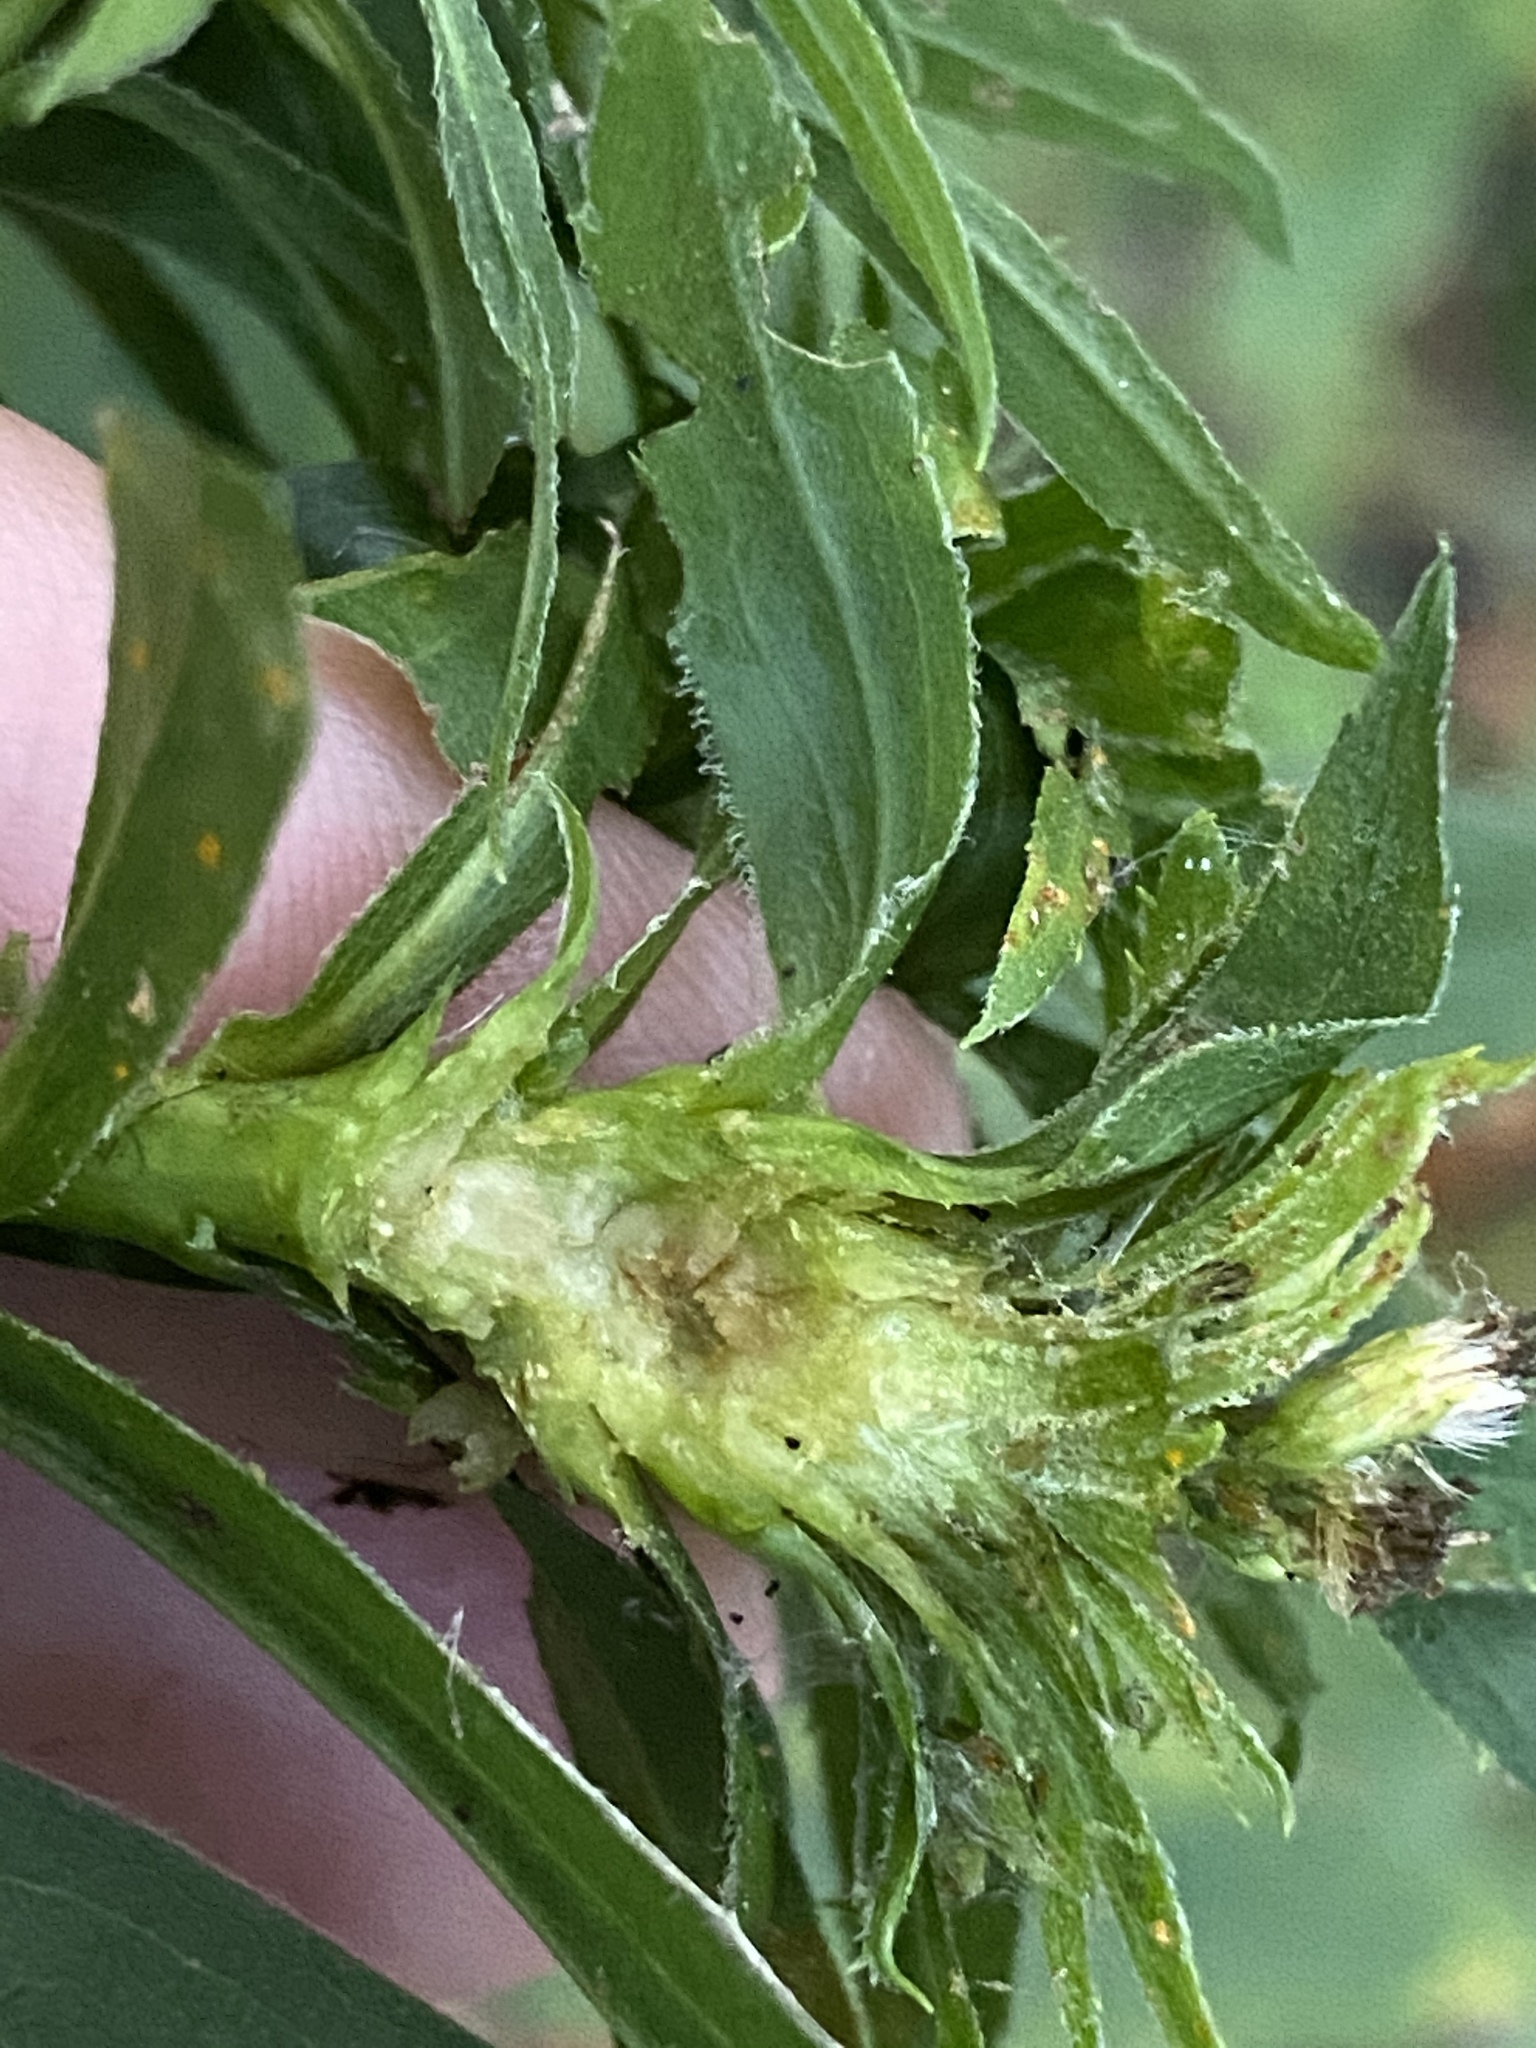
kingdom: Animalia
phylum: Arthropoda
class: Insecta
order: Diptera
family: Tephritidae
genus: Procecidochares
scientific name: Procecidochares atra
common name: Goldenrod brussels sprout gall fly
